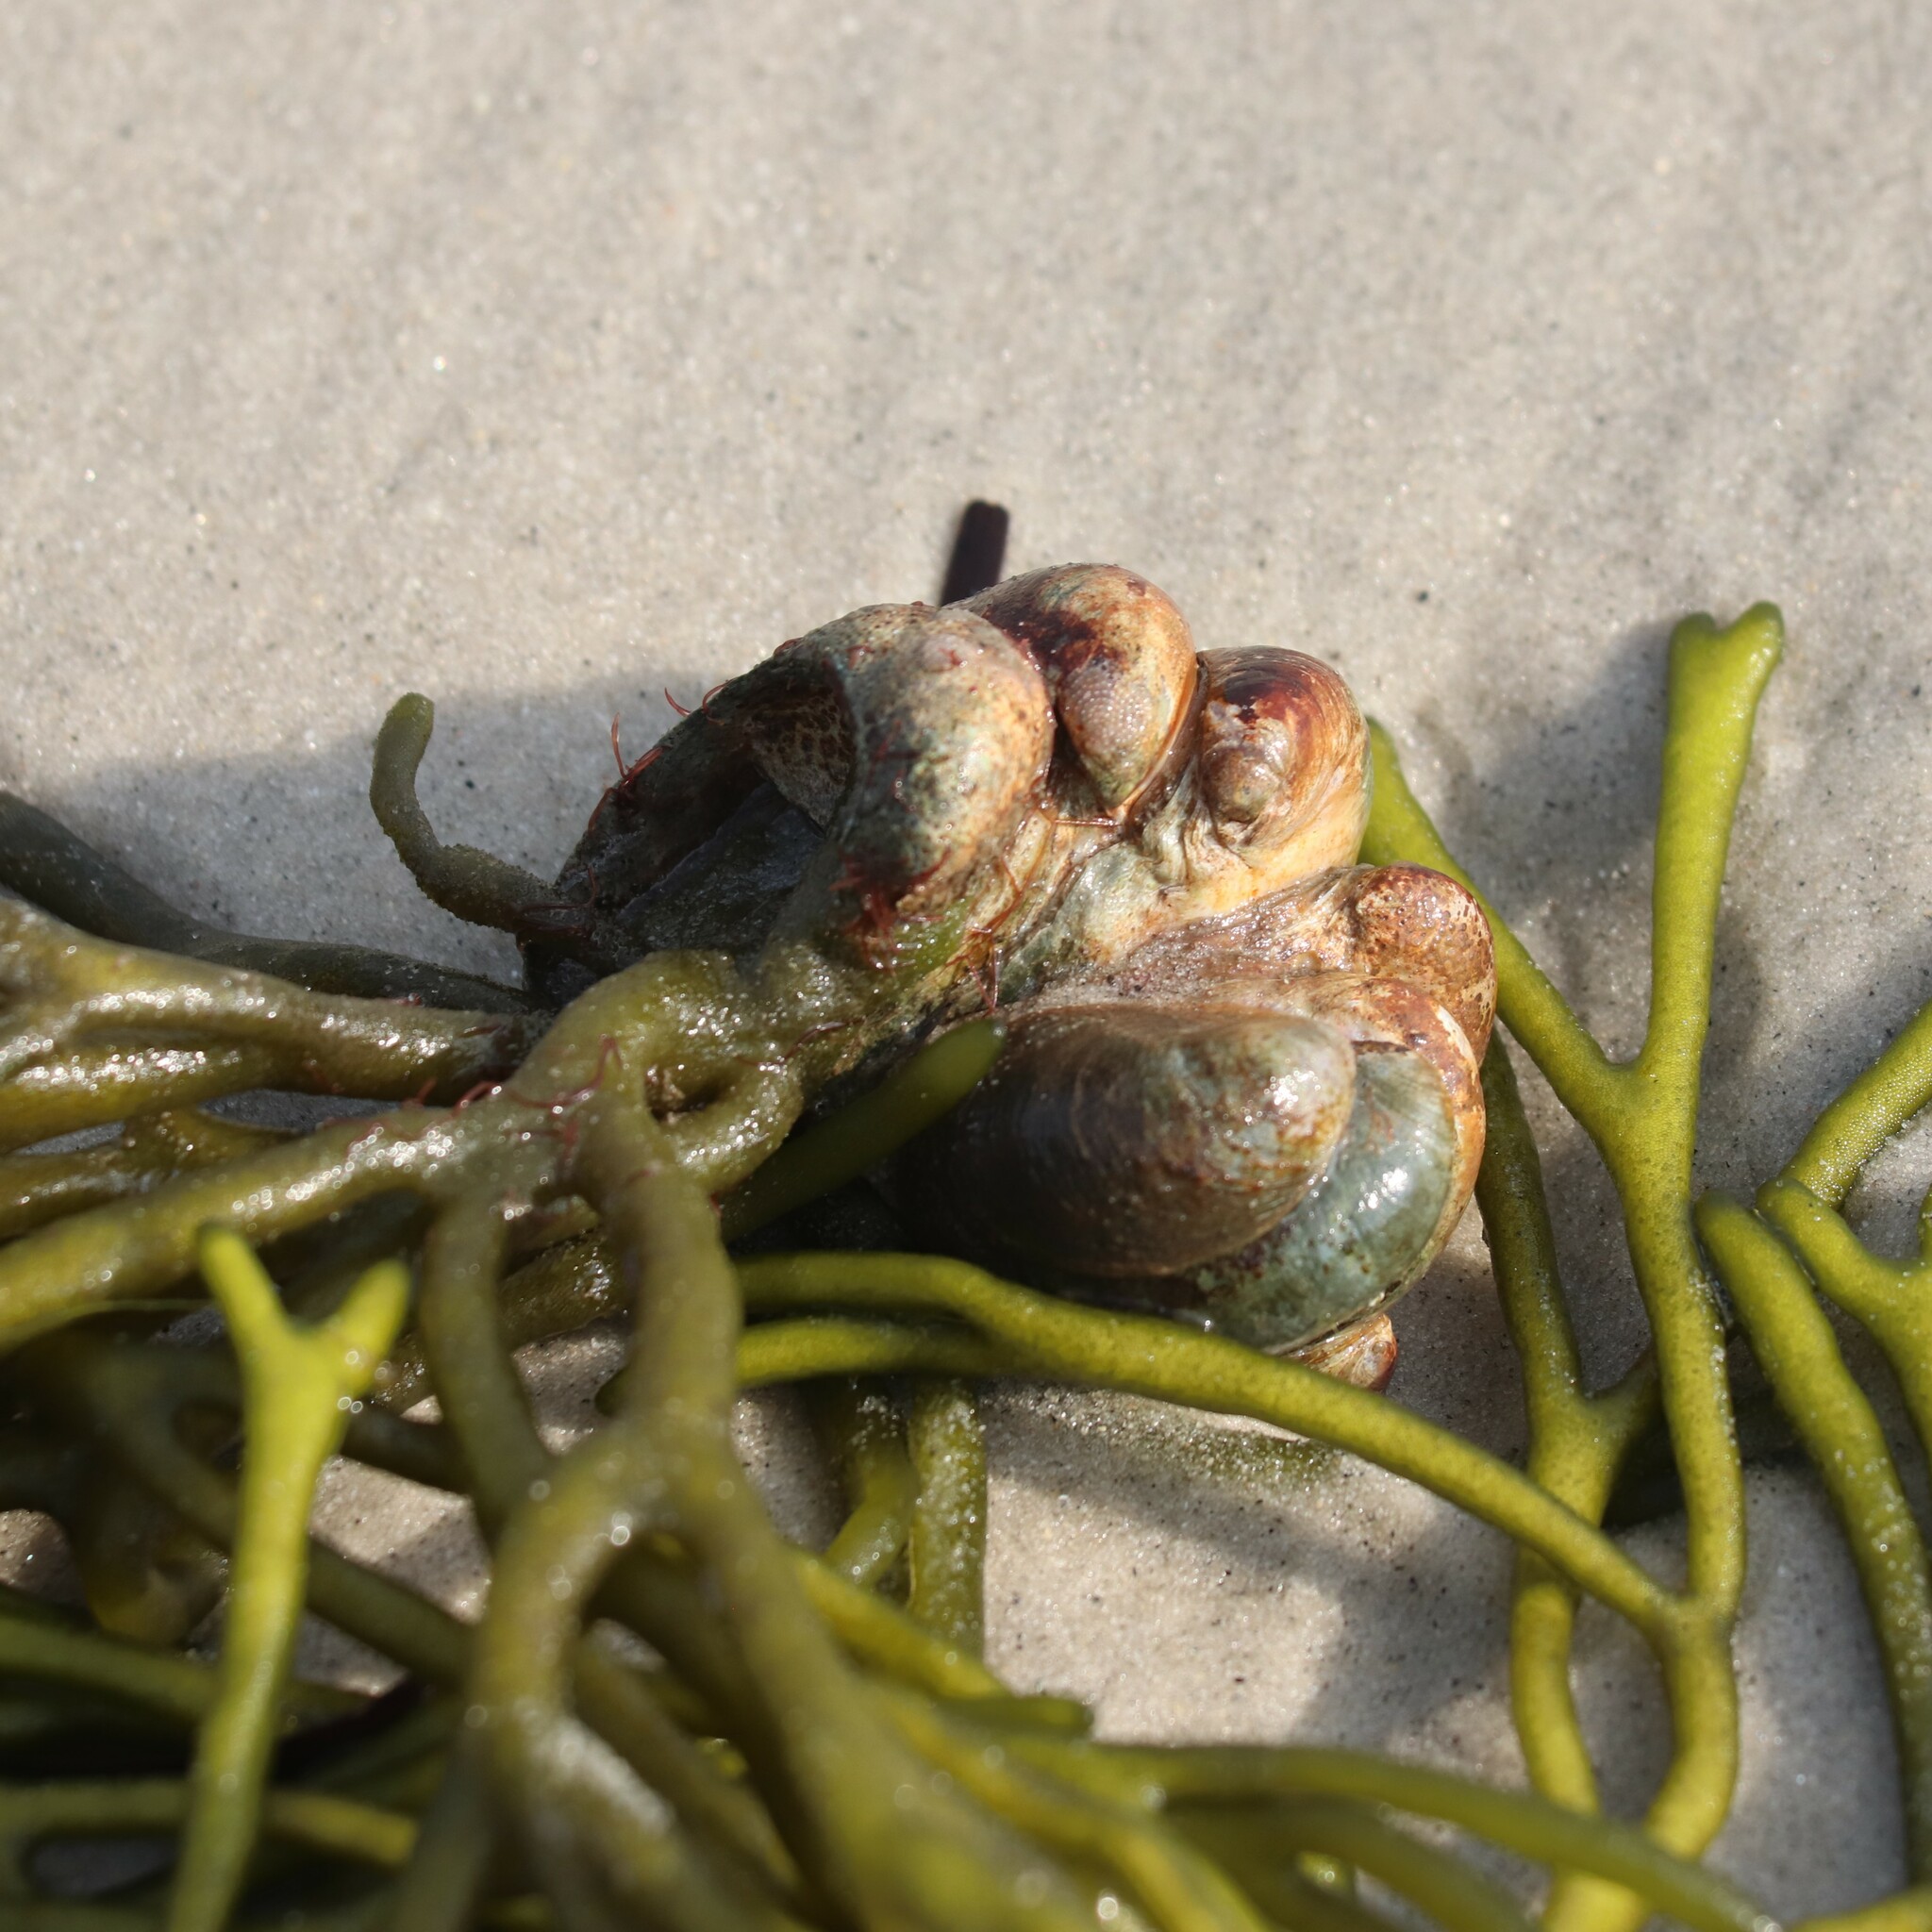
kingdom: Animalia
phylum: Mollusca
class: Gastropoda
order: Littorinimorpha
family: Calyptraeidae
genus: Crepidula
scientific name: Crepidula fornicata
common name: Slipper limpet
